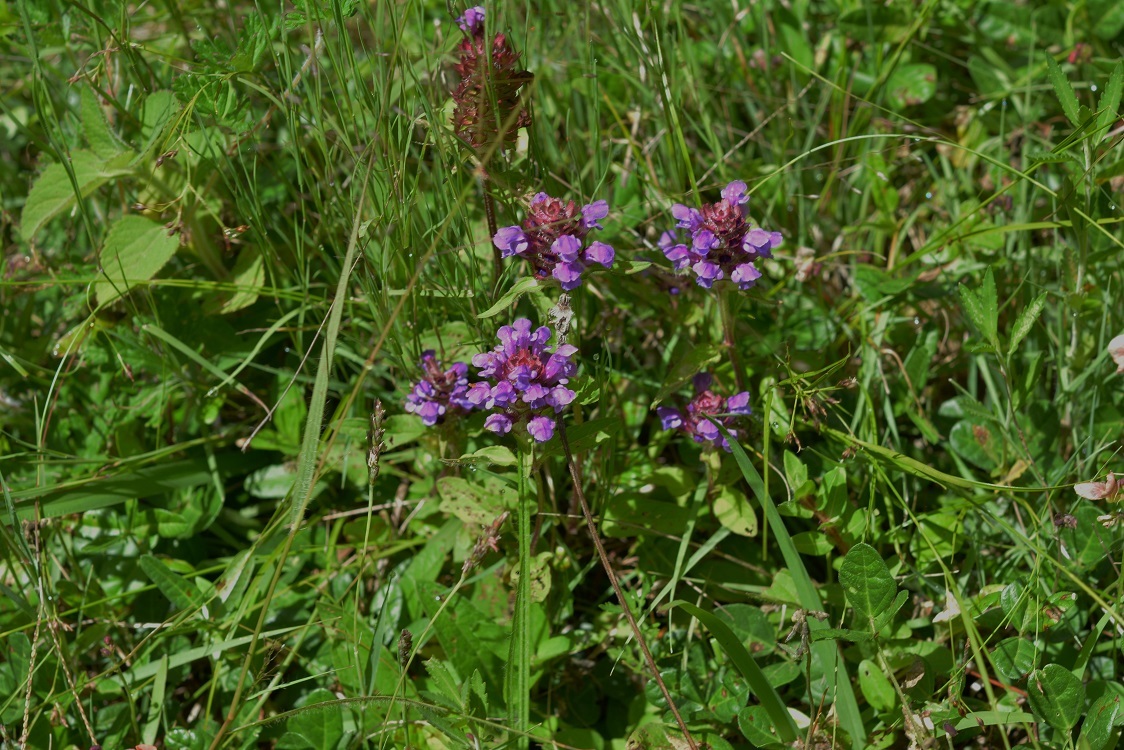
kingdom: Plantae
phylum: Tracheophyta
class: Magnoliopsida
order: Lamiales
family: Lamiaceae
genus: Prunella
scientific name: Prunella vulgaris
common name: Heal-all
